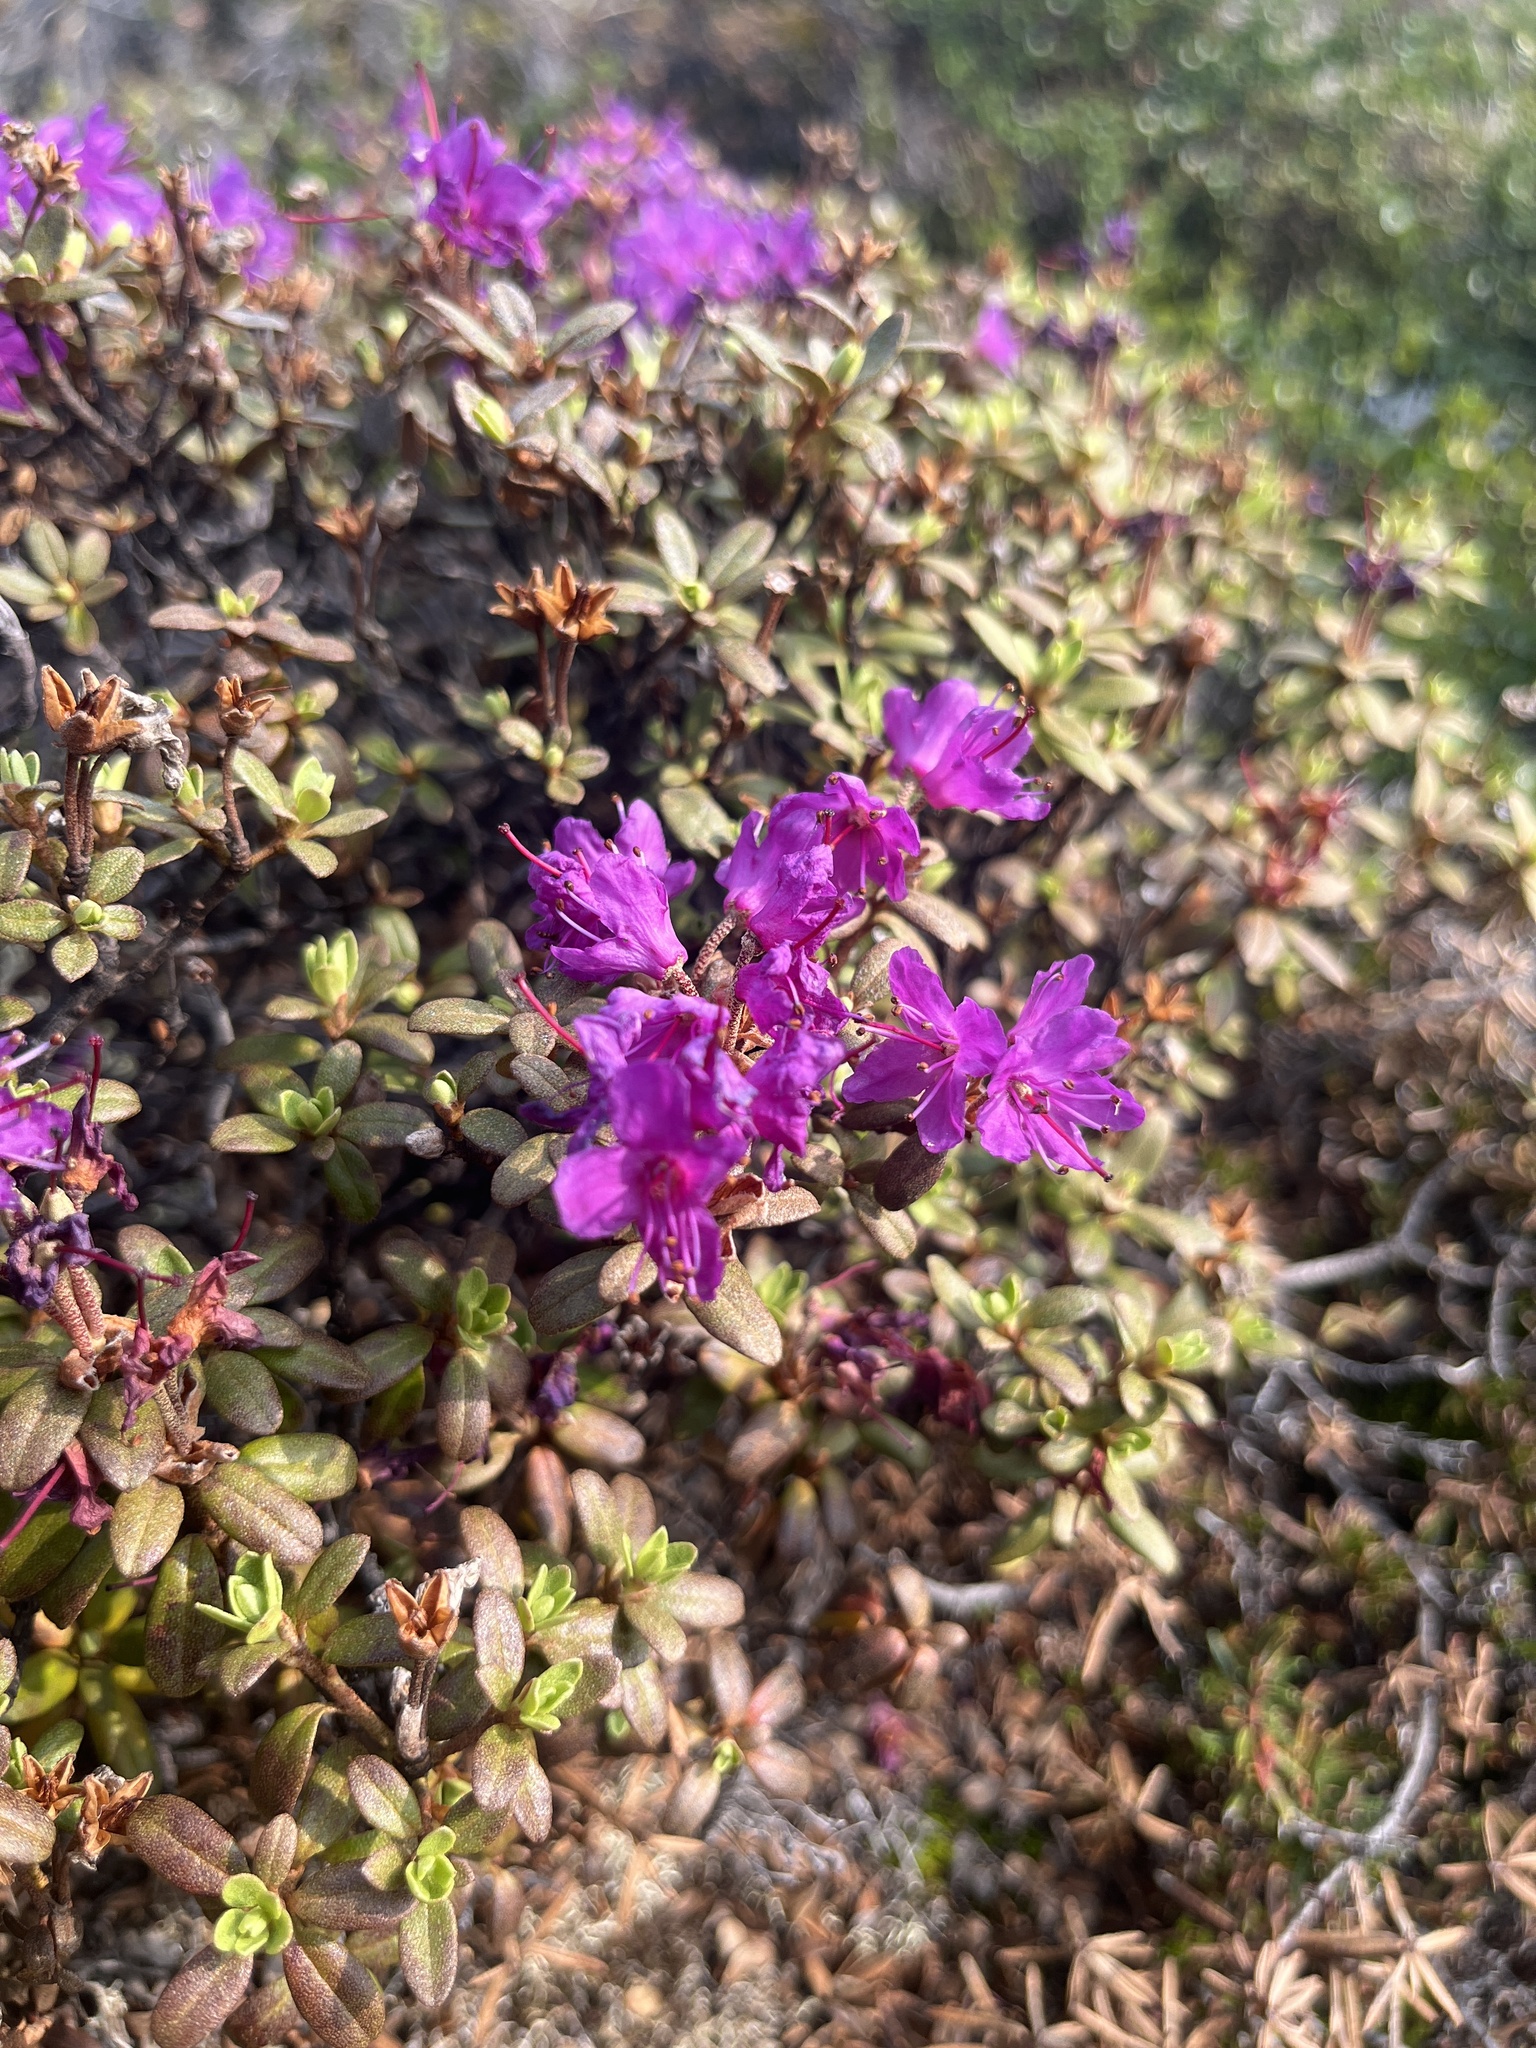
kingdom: Plantae
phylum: Tracheophyta
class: Magnoliopsida
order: Ericales
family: Ericaceae
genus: Rhododendron
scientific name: Rhododendron lapponicum
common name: Lapland rhododendron
